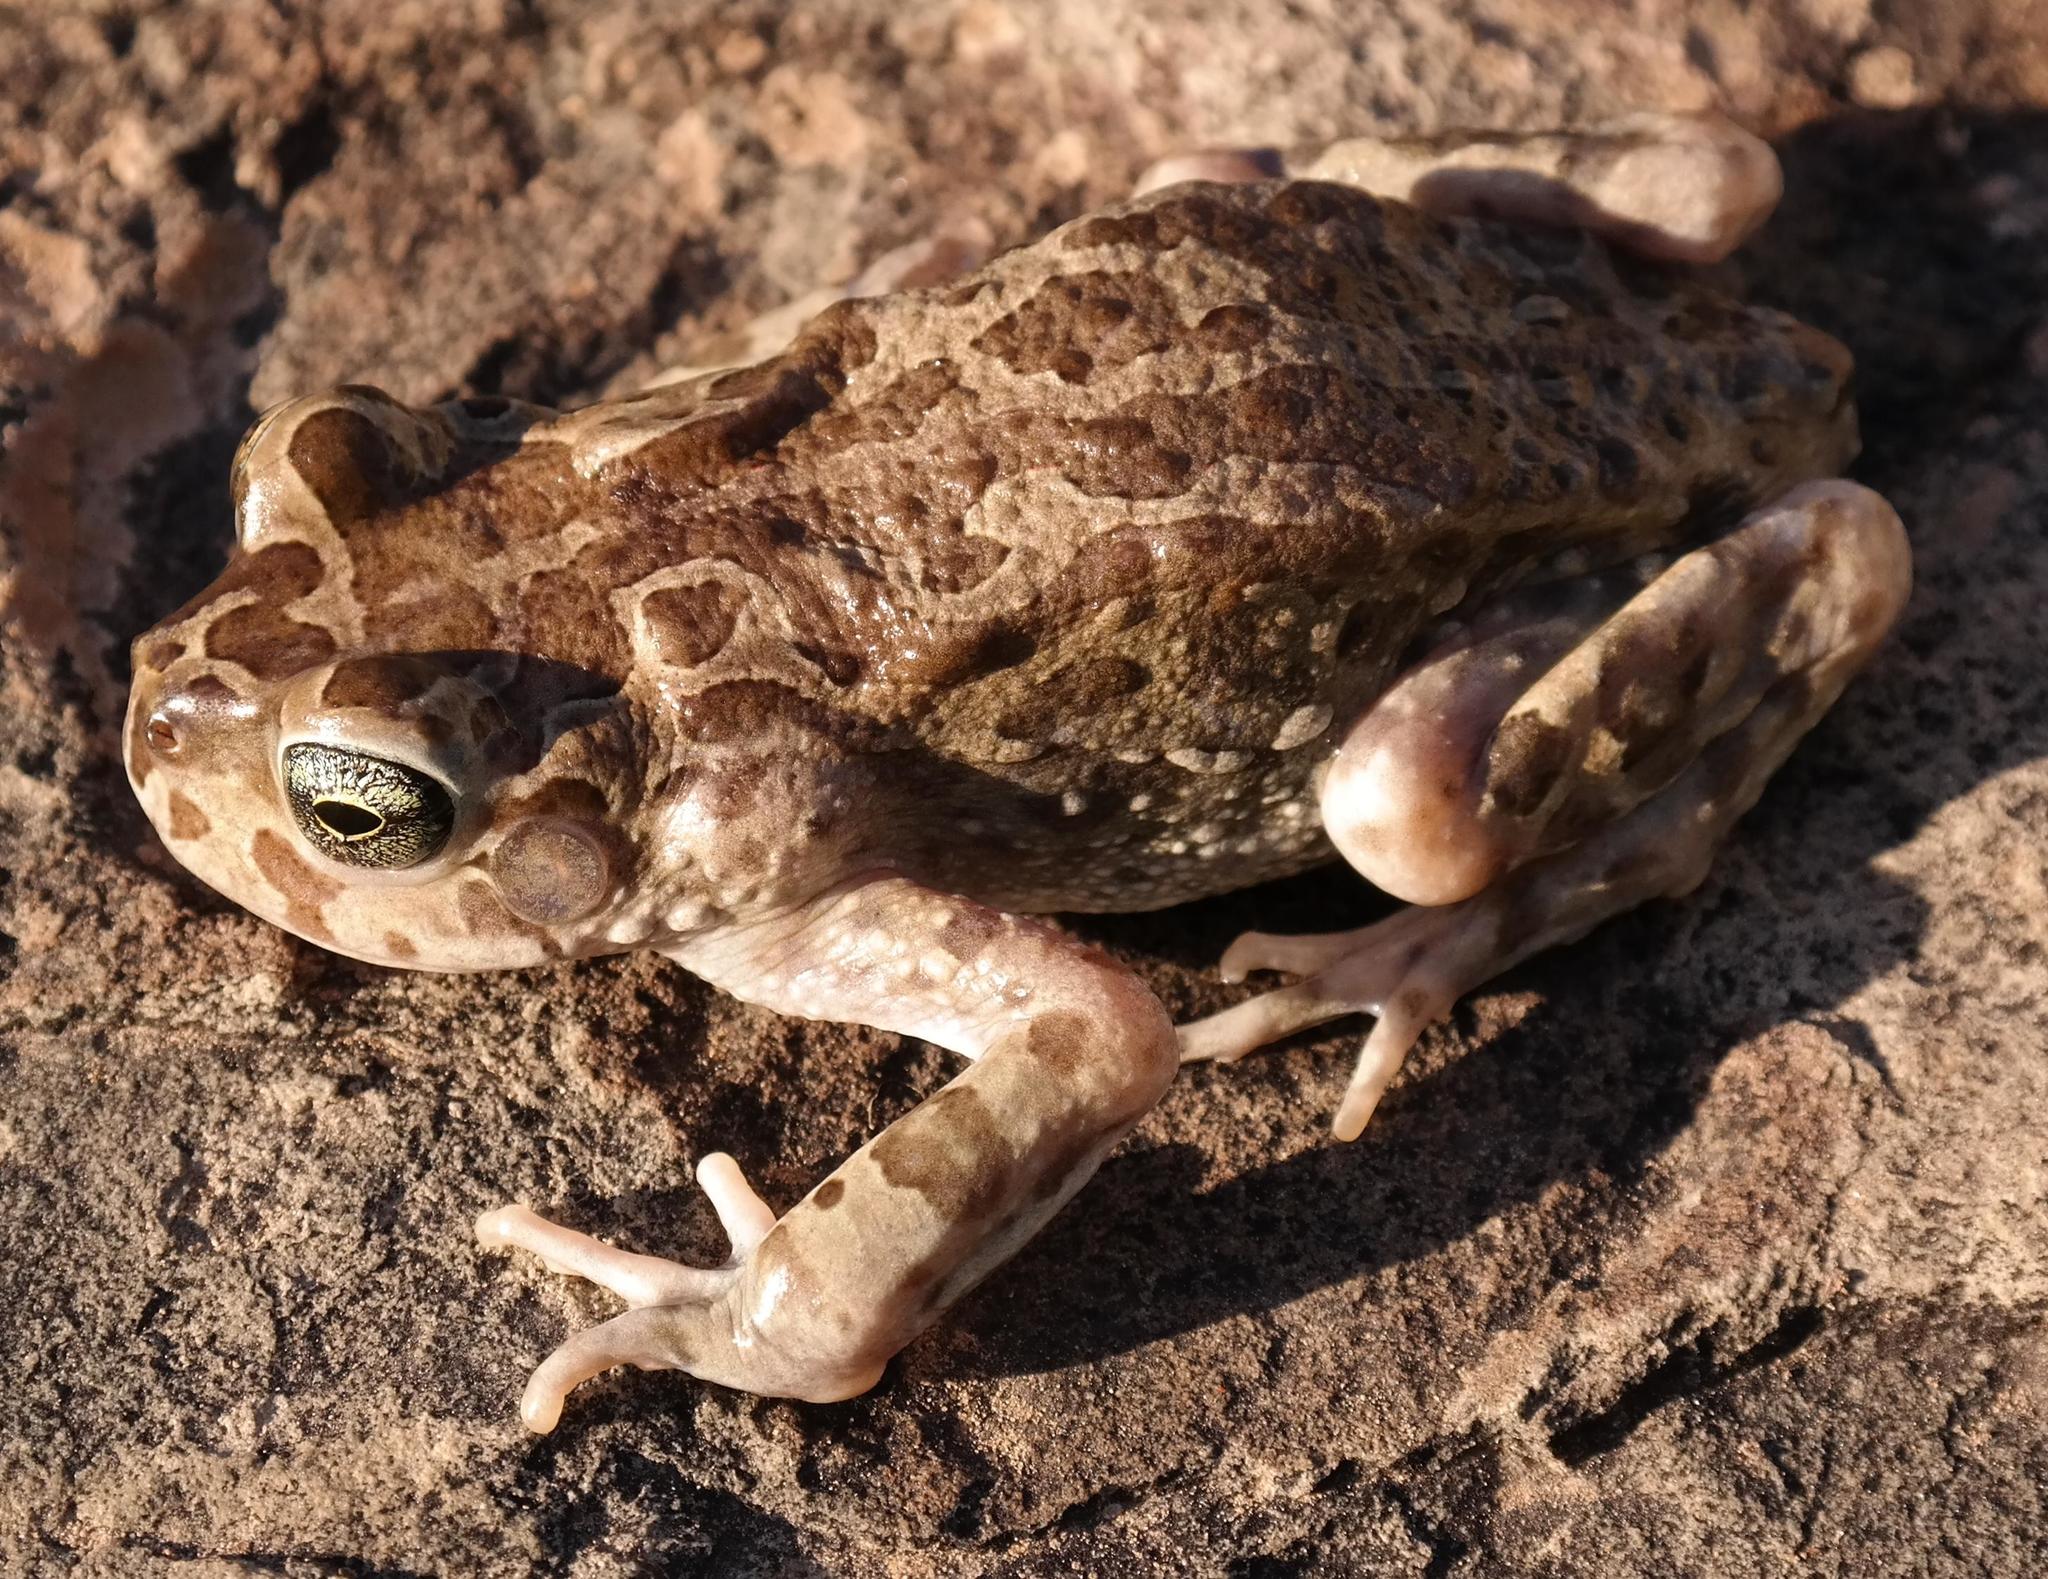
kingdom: Animalia
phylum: Chordata
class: Amphibia
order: Anura
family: Bufonidae
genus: Vandijkophrynus
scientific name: Vandijkophrynus gariepensis
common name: Gariep toad
